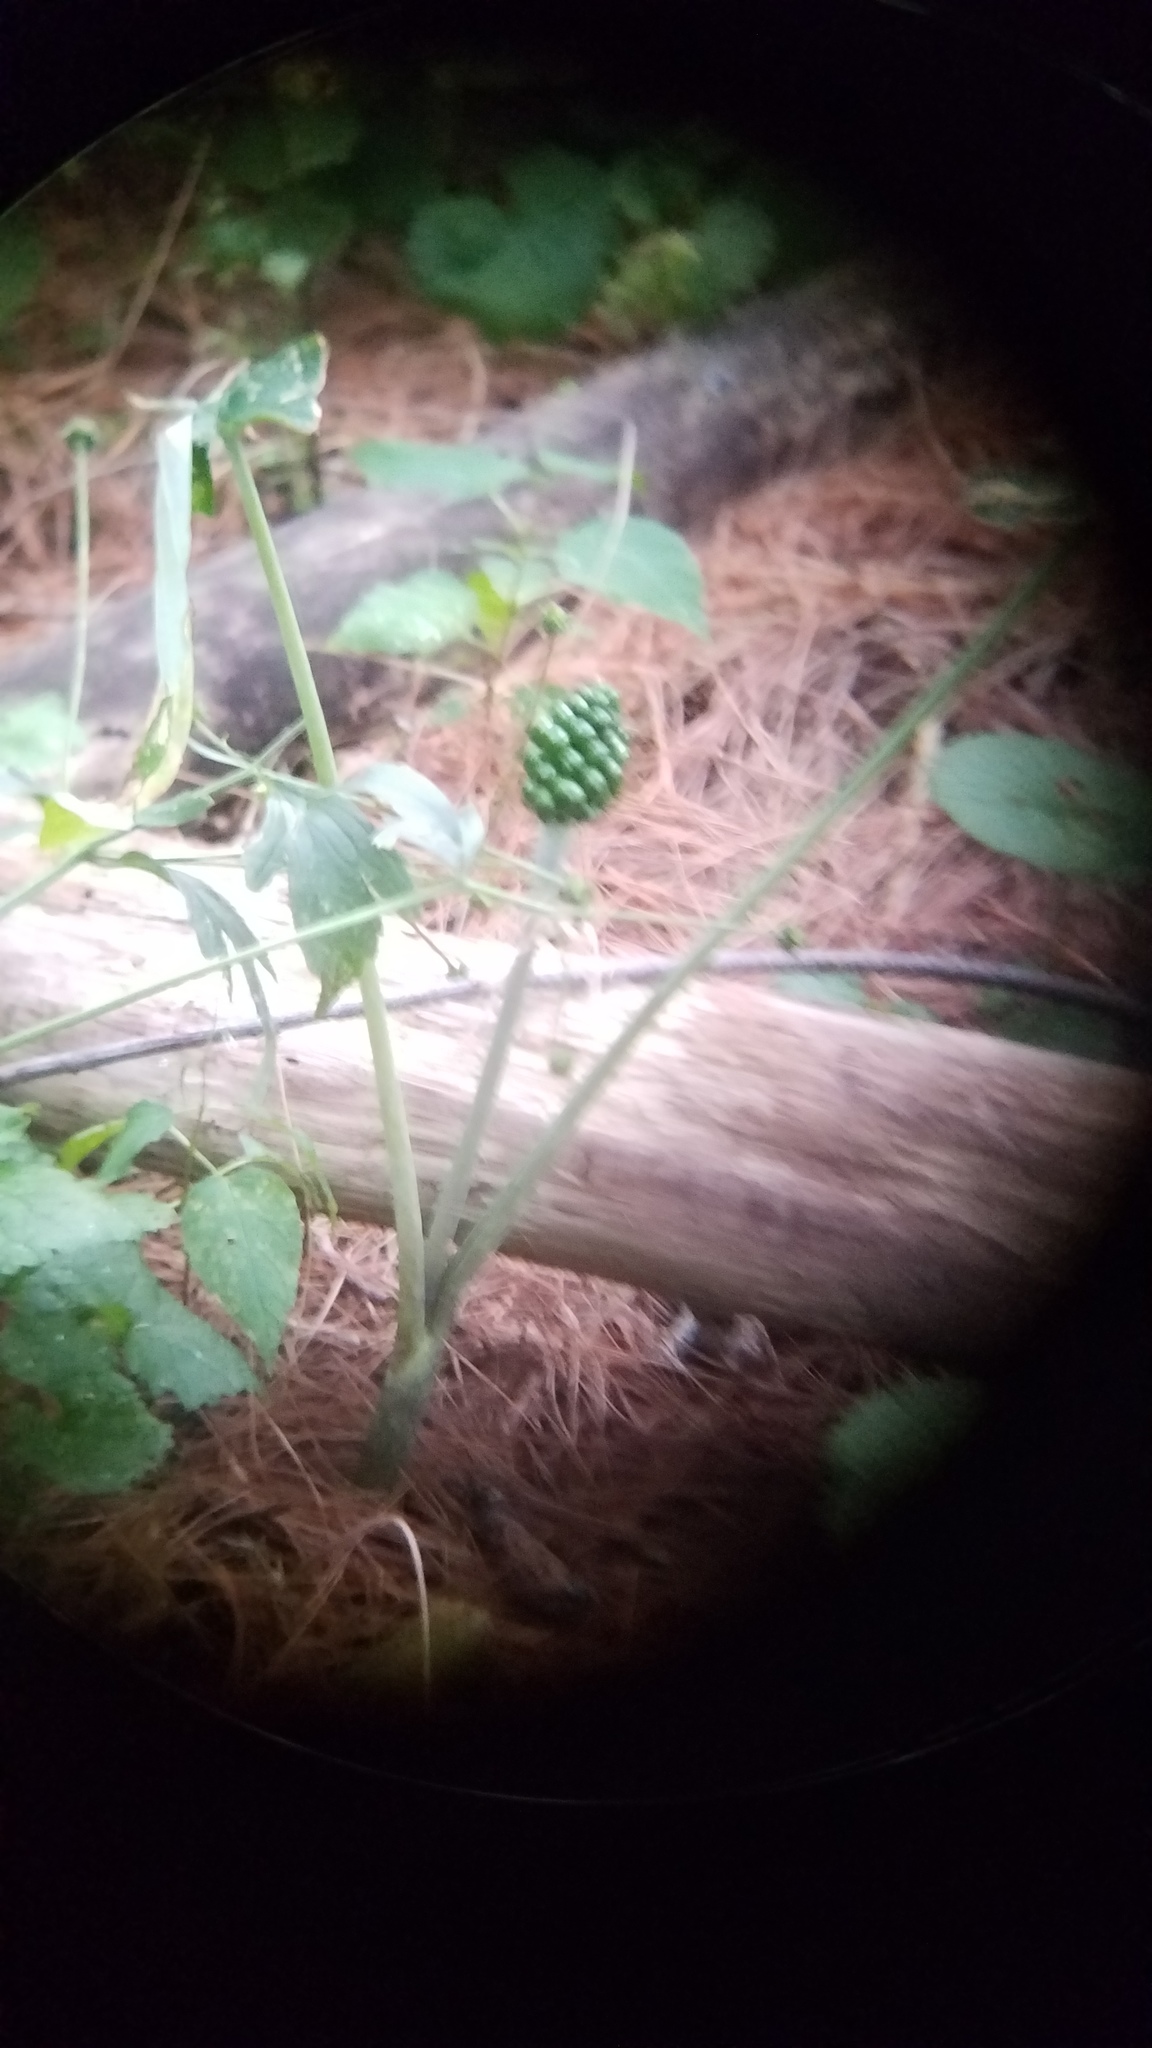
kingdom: Plantae
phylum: Tracheophyta
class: Liliopsida
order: Alismatales
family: Araceae
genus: Arisaema
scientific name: Arisaema triphyllum
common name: Jack-in-the-pulpit
